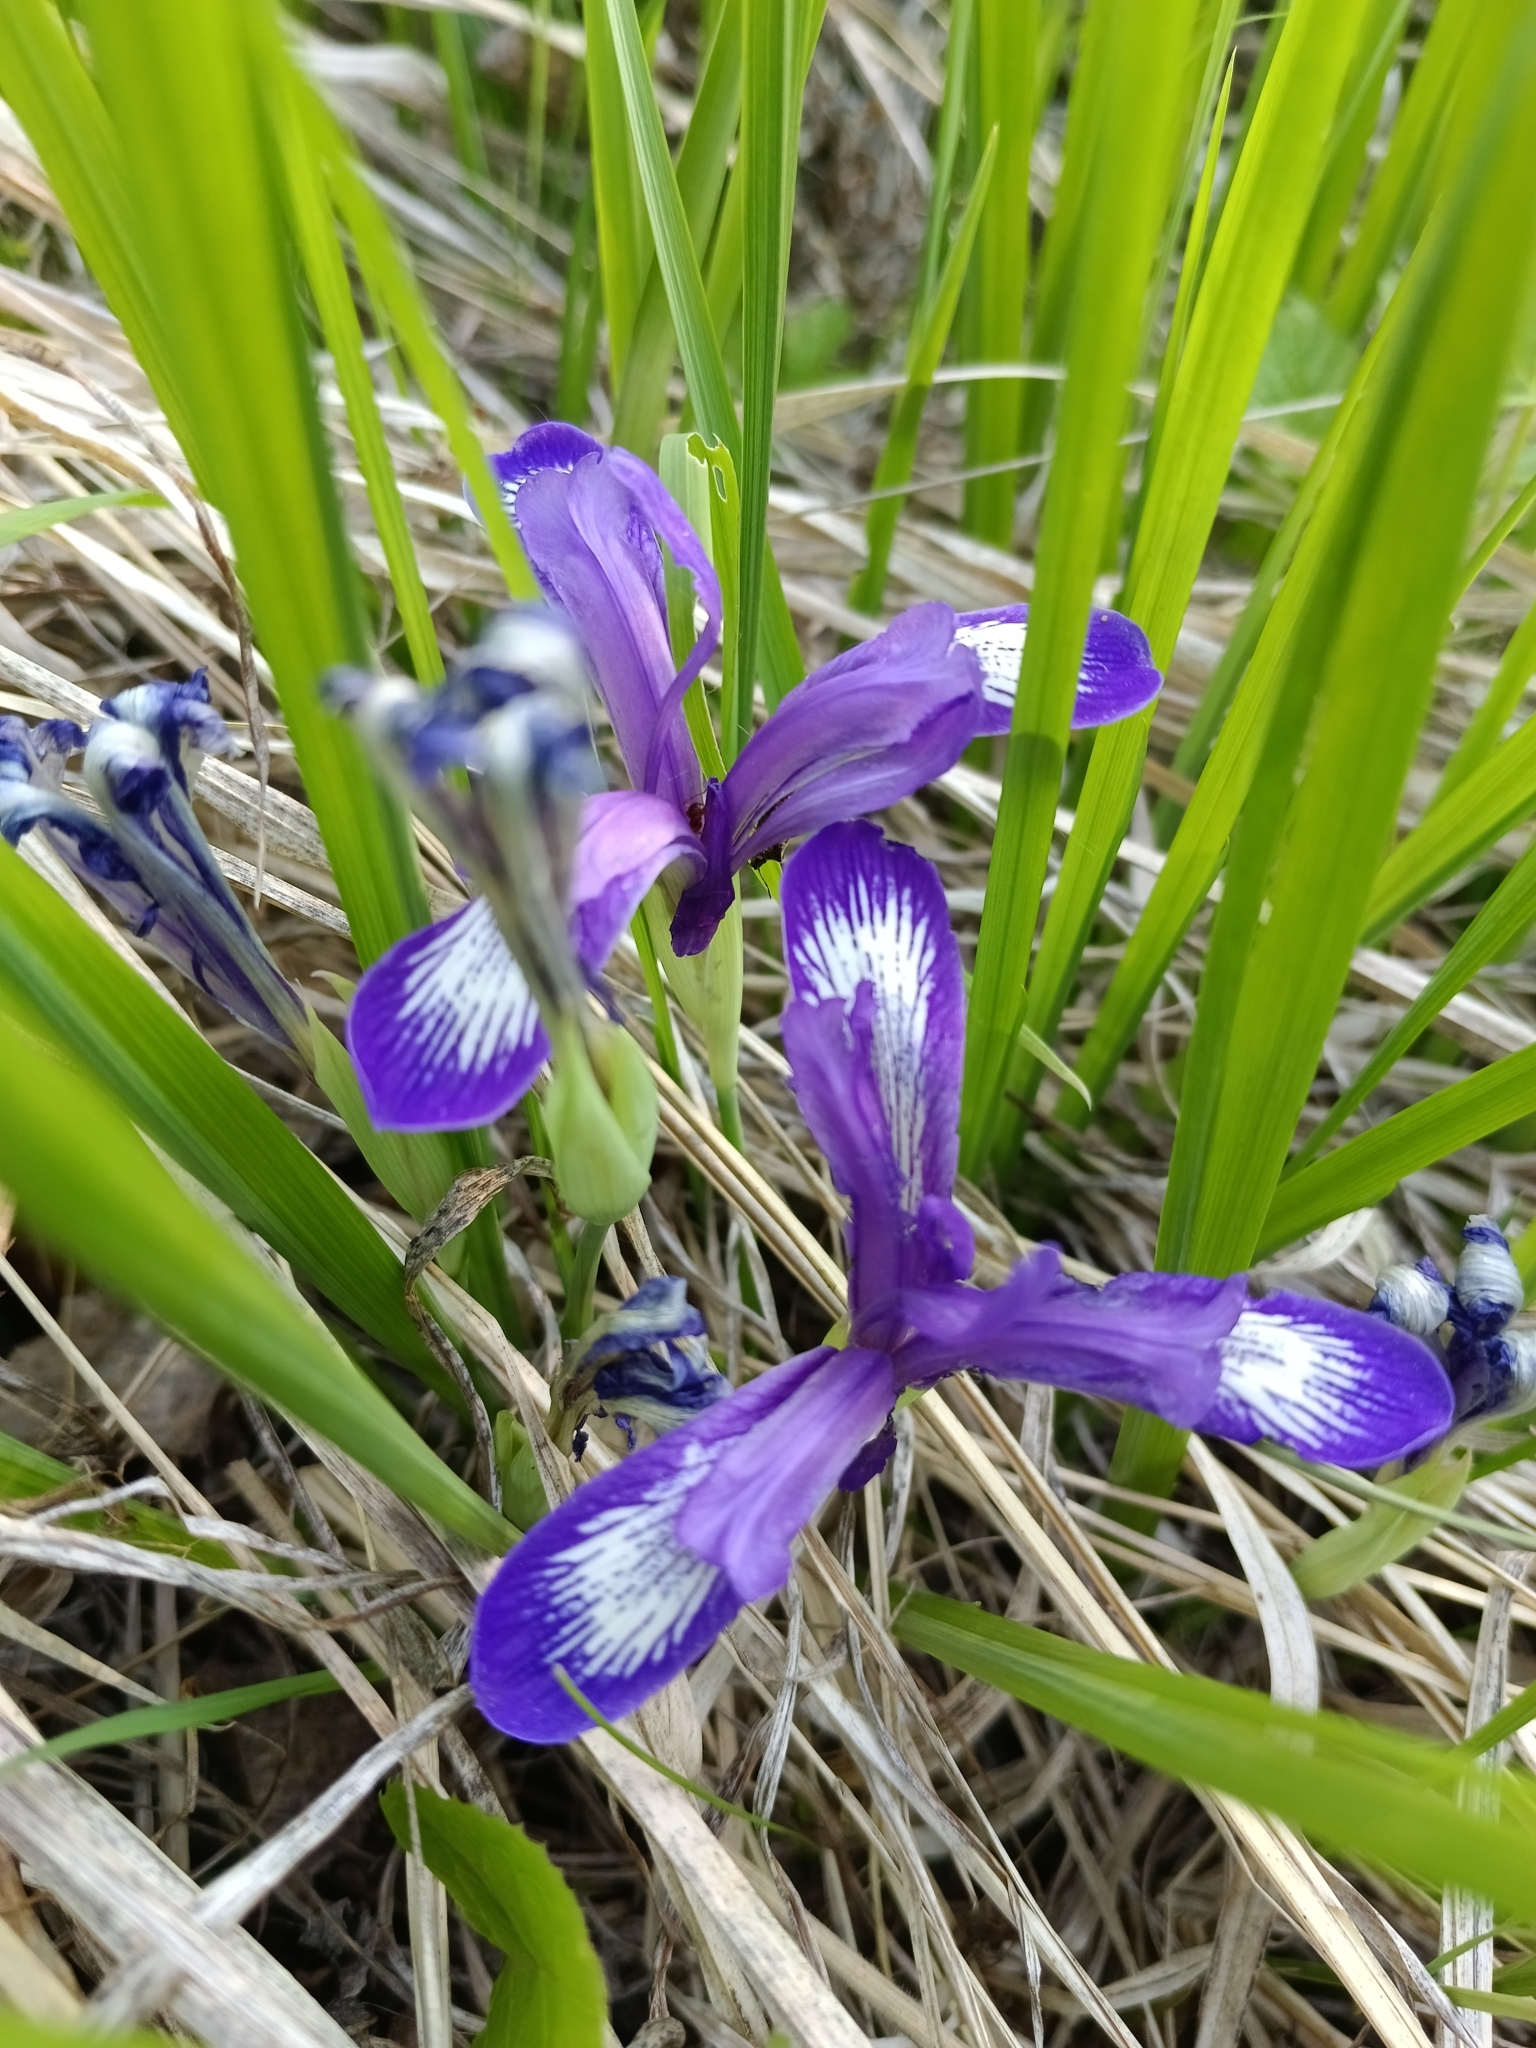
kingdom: Plantae
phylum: Tracheophyta
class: Liliopsida
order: Asparagales
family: Iridaceae
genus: Iris
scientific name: Iris ruthenica
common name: Purple-bract iris
